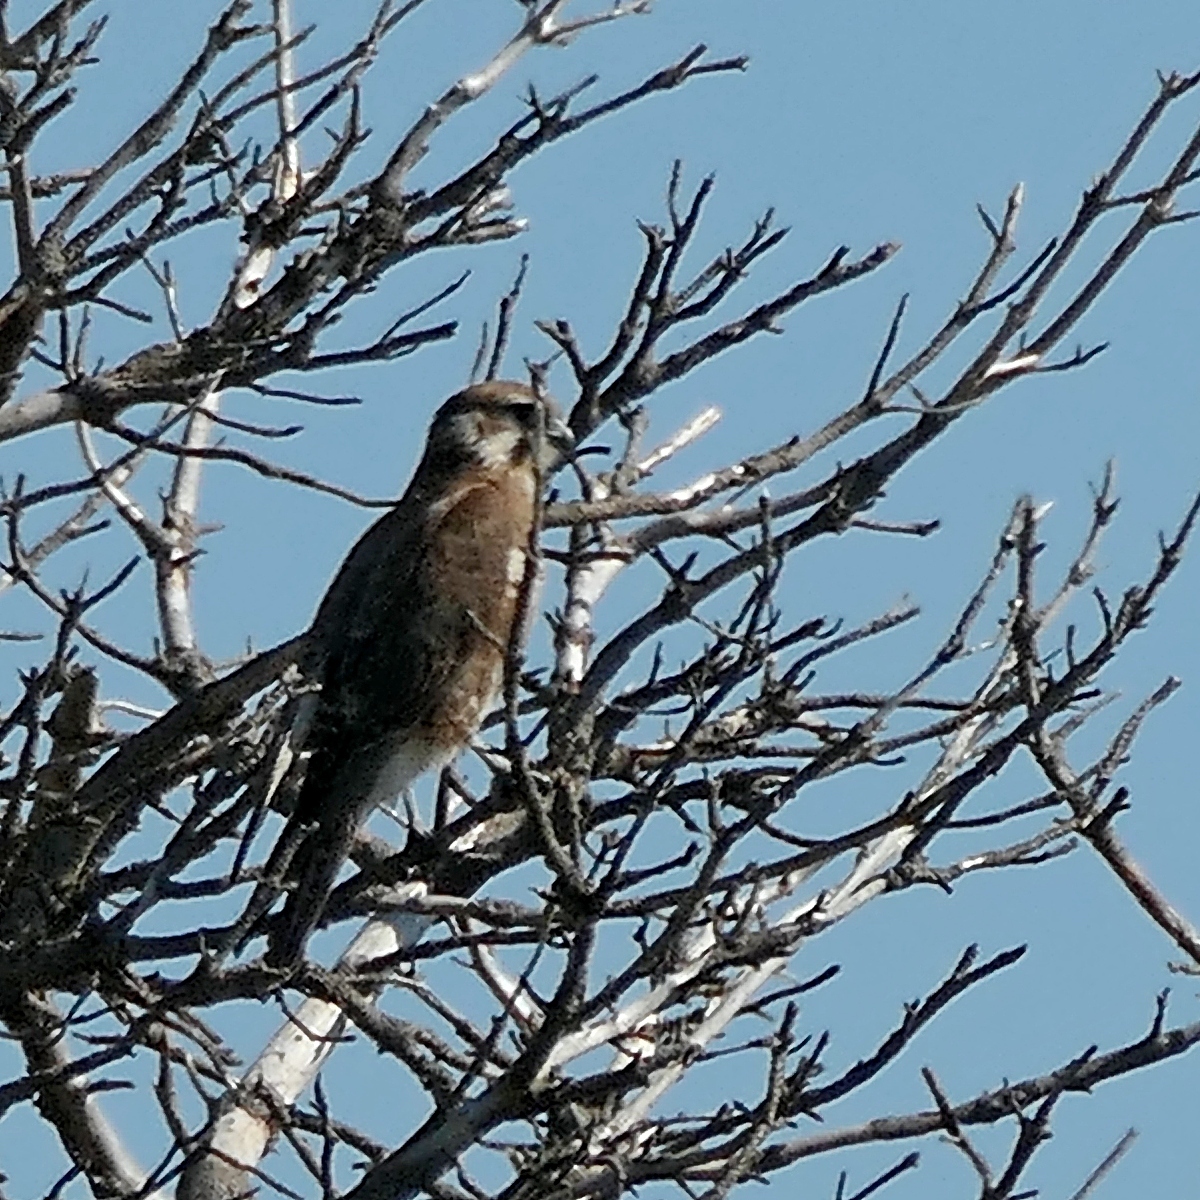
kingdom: Animalia
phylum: Chordata
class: Aves
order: Falconiformes
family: Falconidae
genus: Falco
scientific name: Falco berigora
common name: Brown falcon
